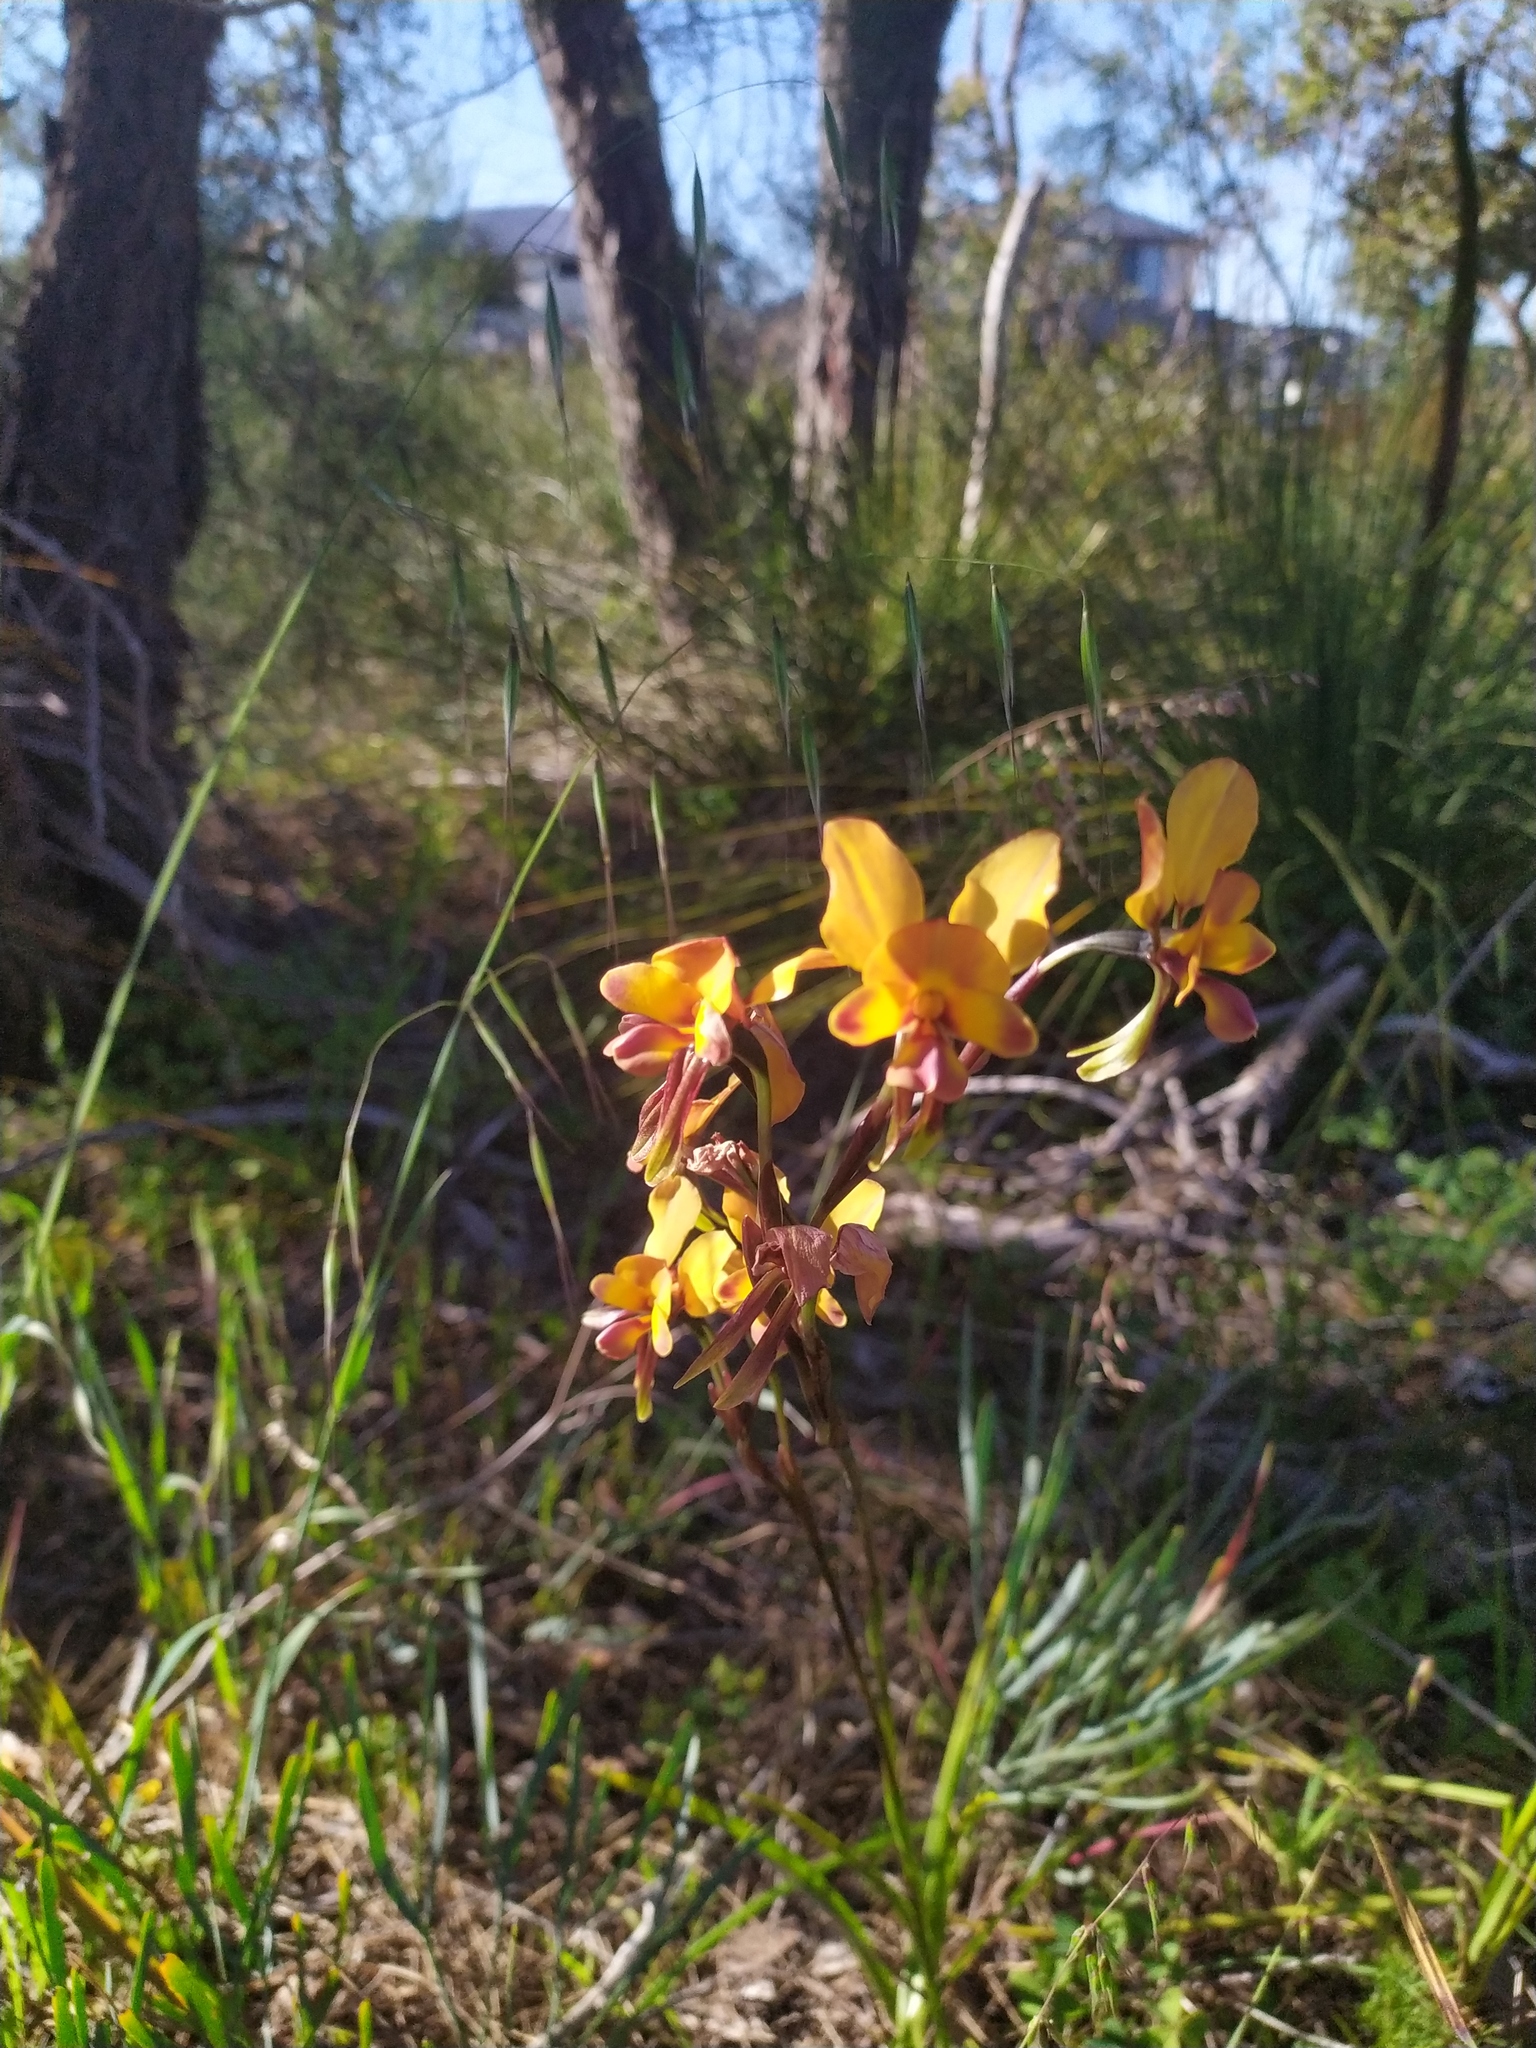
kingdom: Plantae
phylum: Tracheophyta
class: Liliopsida
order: Asparagales
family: Orchidaceae
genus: Diuris
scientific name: Diuris magnifica
